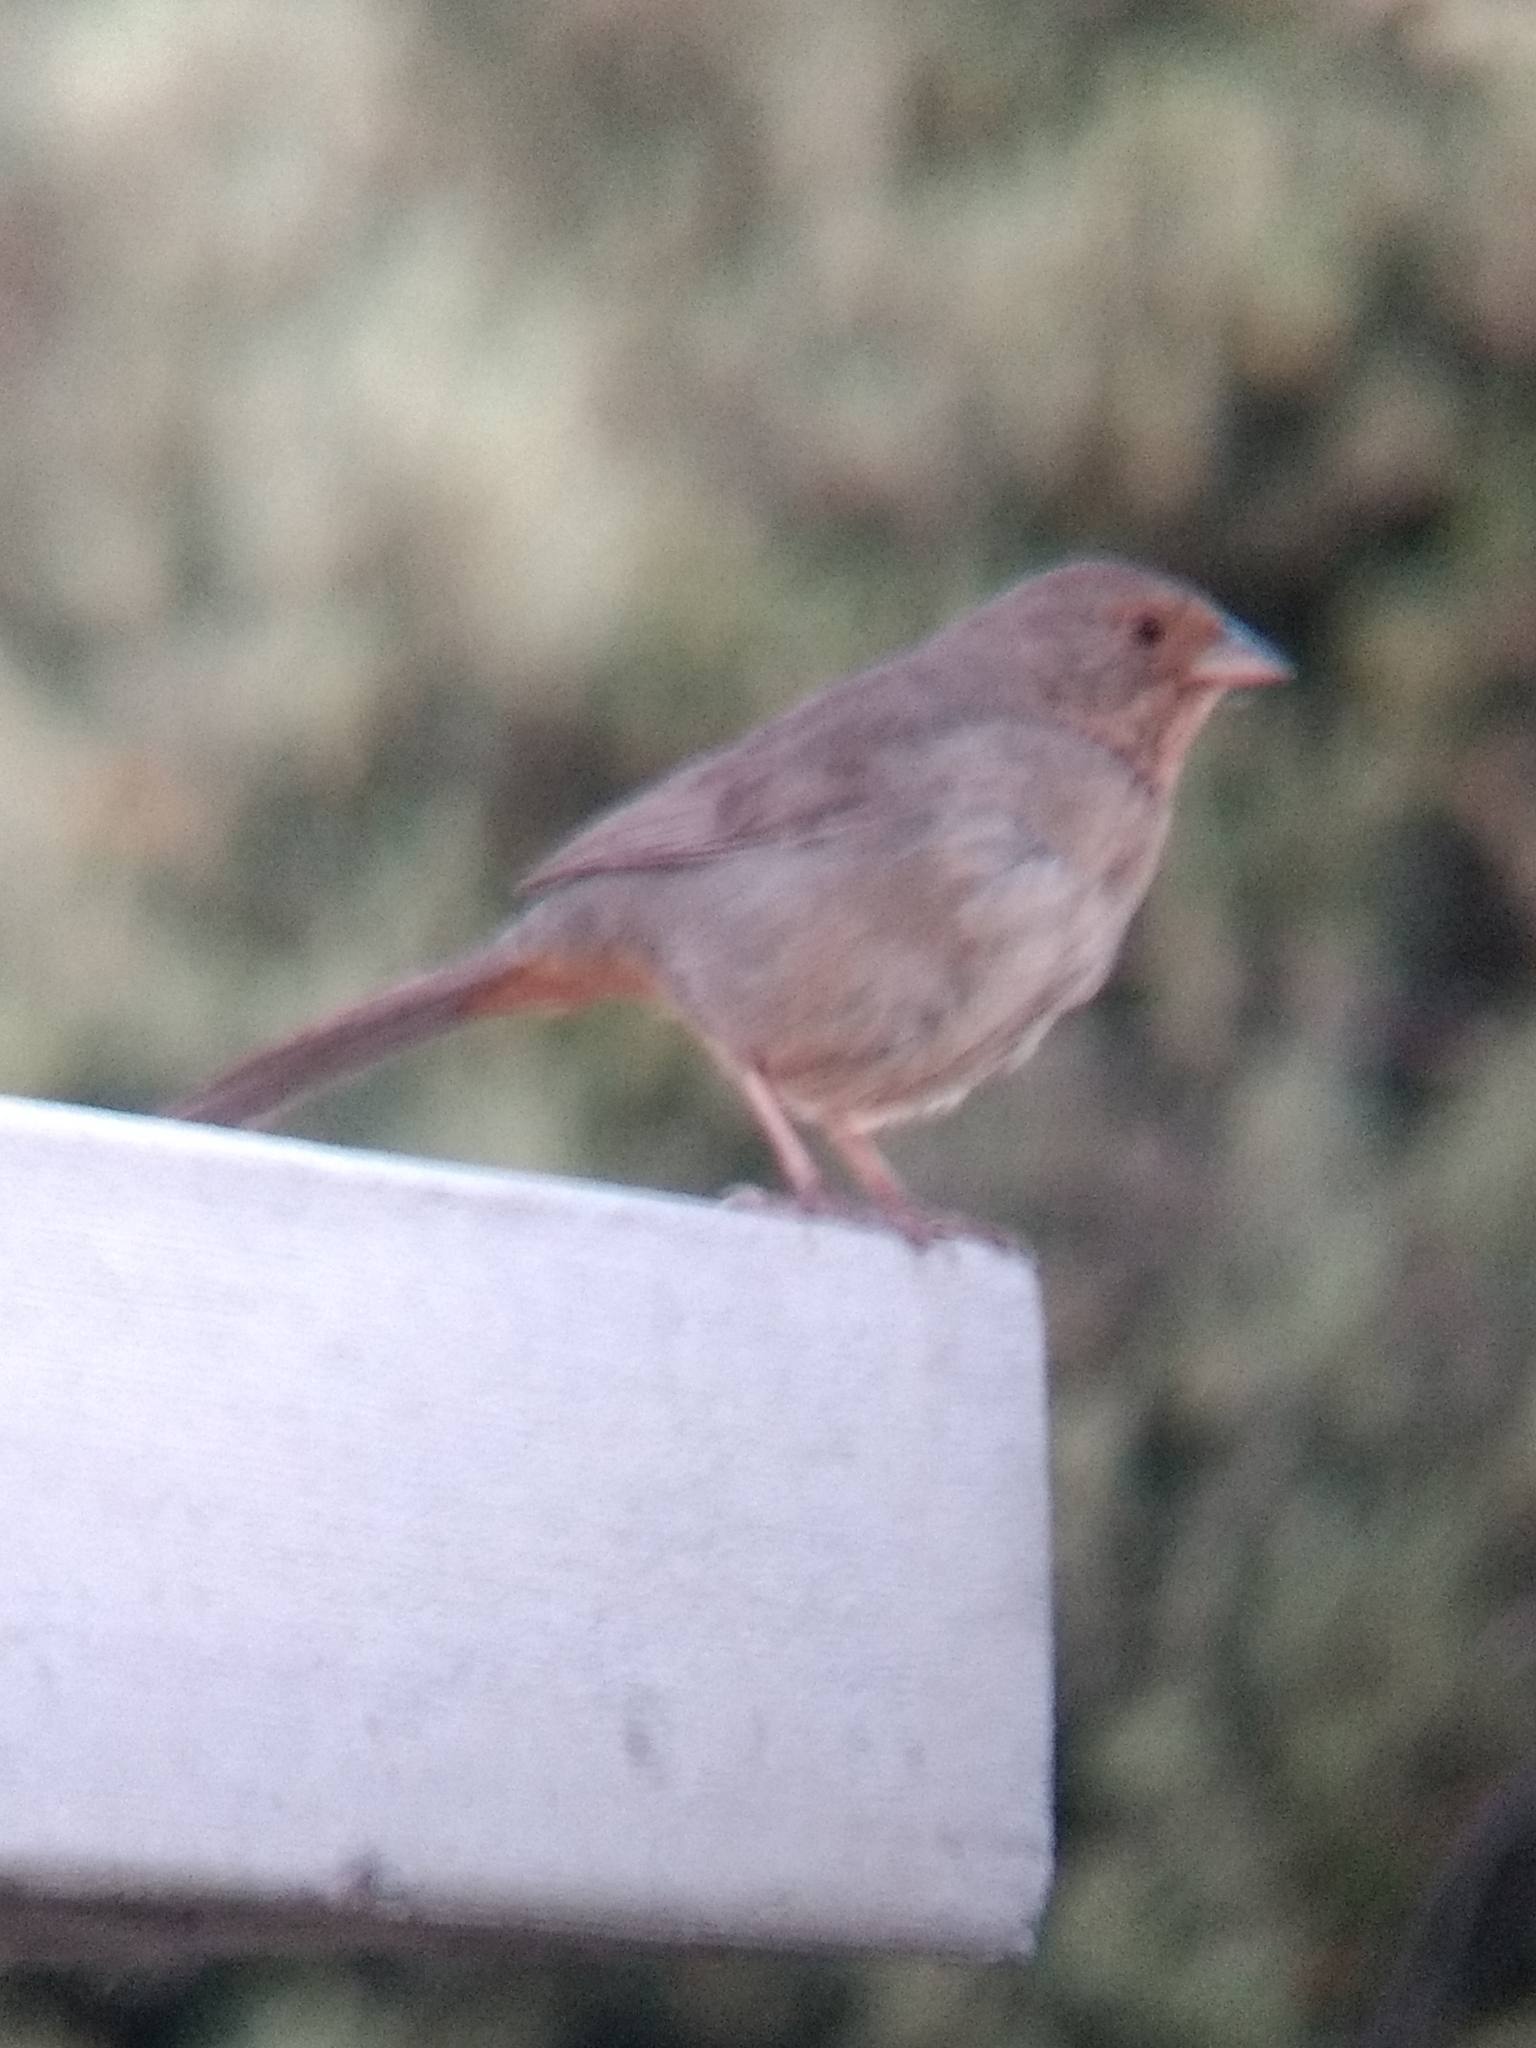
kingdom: Animalia
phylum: Chordata
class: Aves
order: Passeriformes
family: Passerellidae
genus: Melozone
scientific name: Melozone crissalis
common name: California towhee
